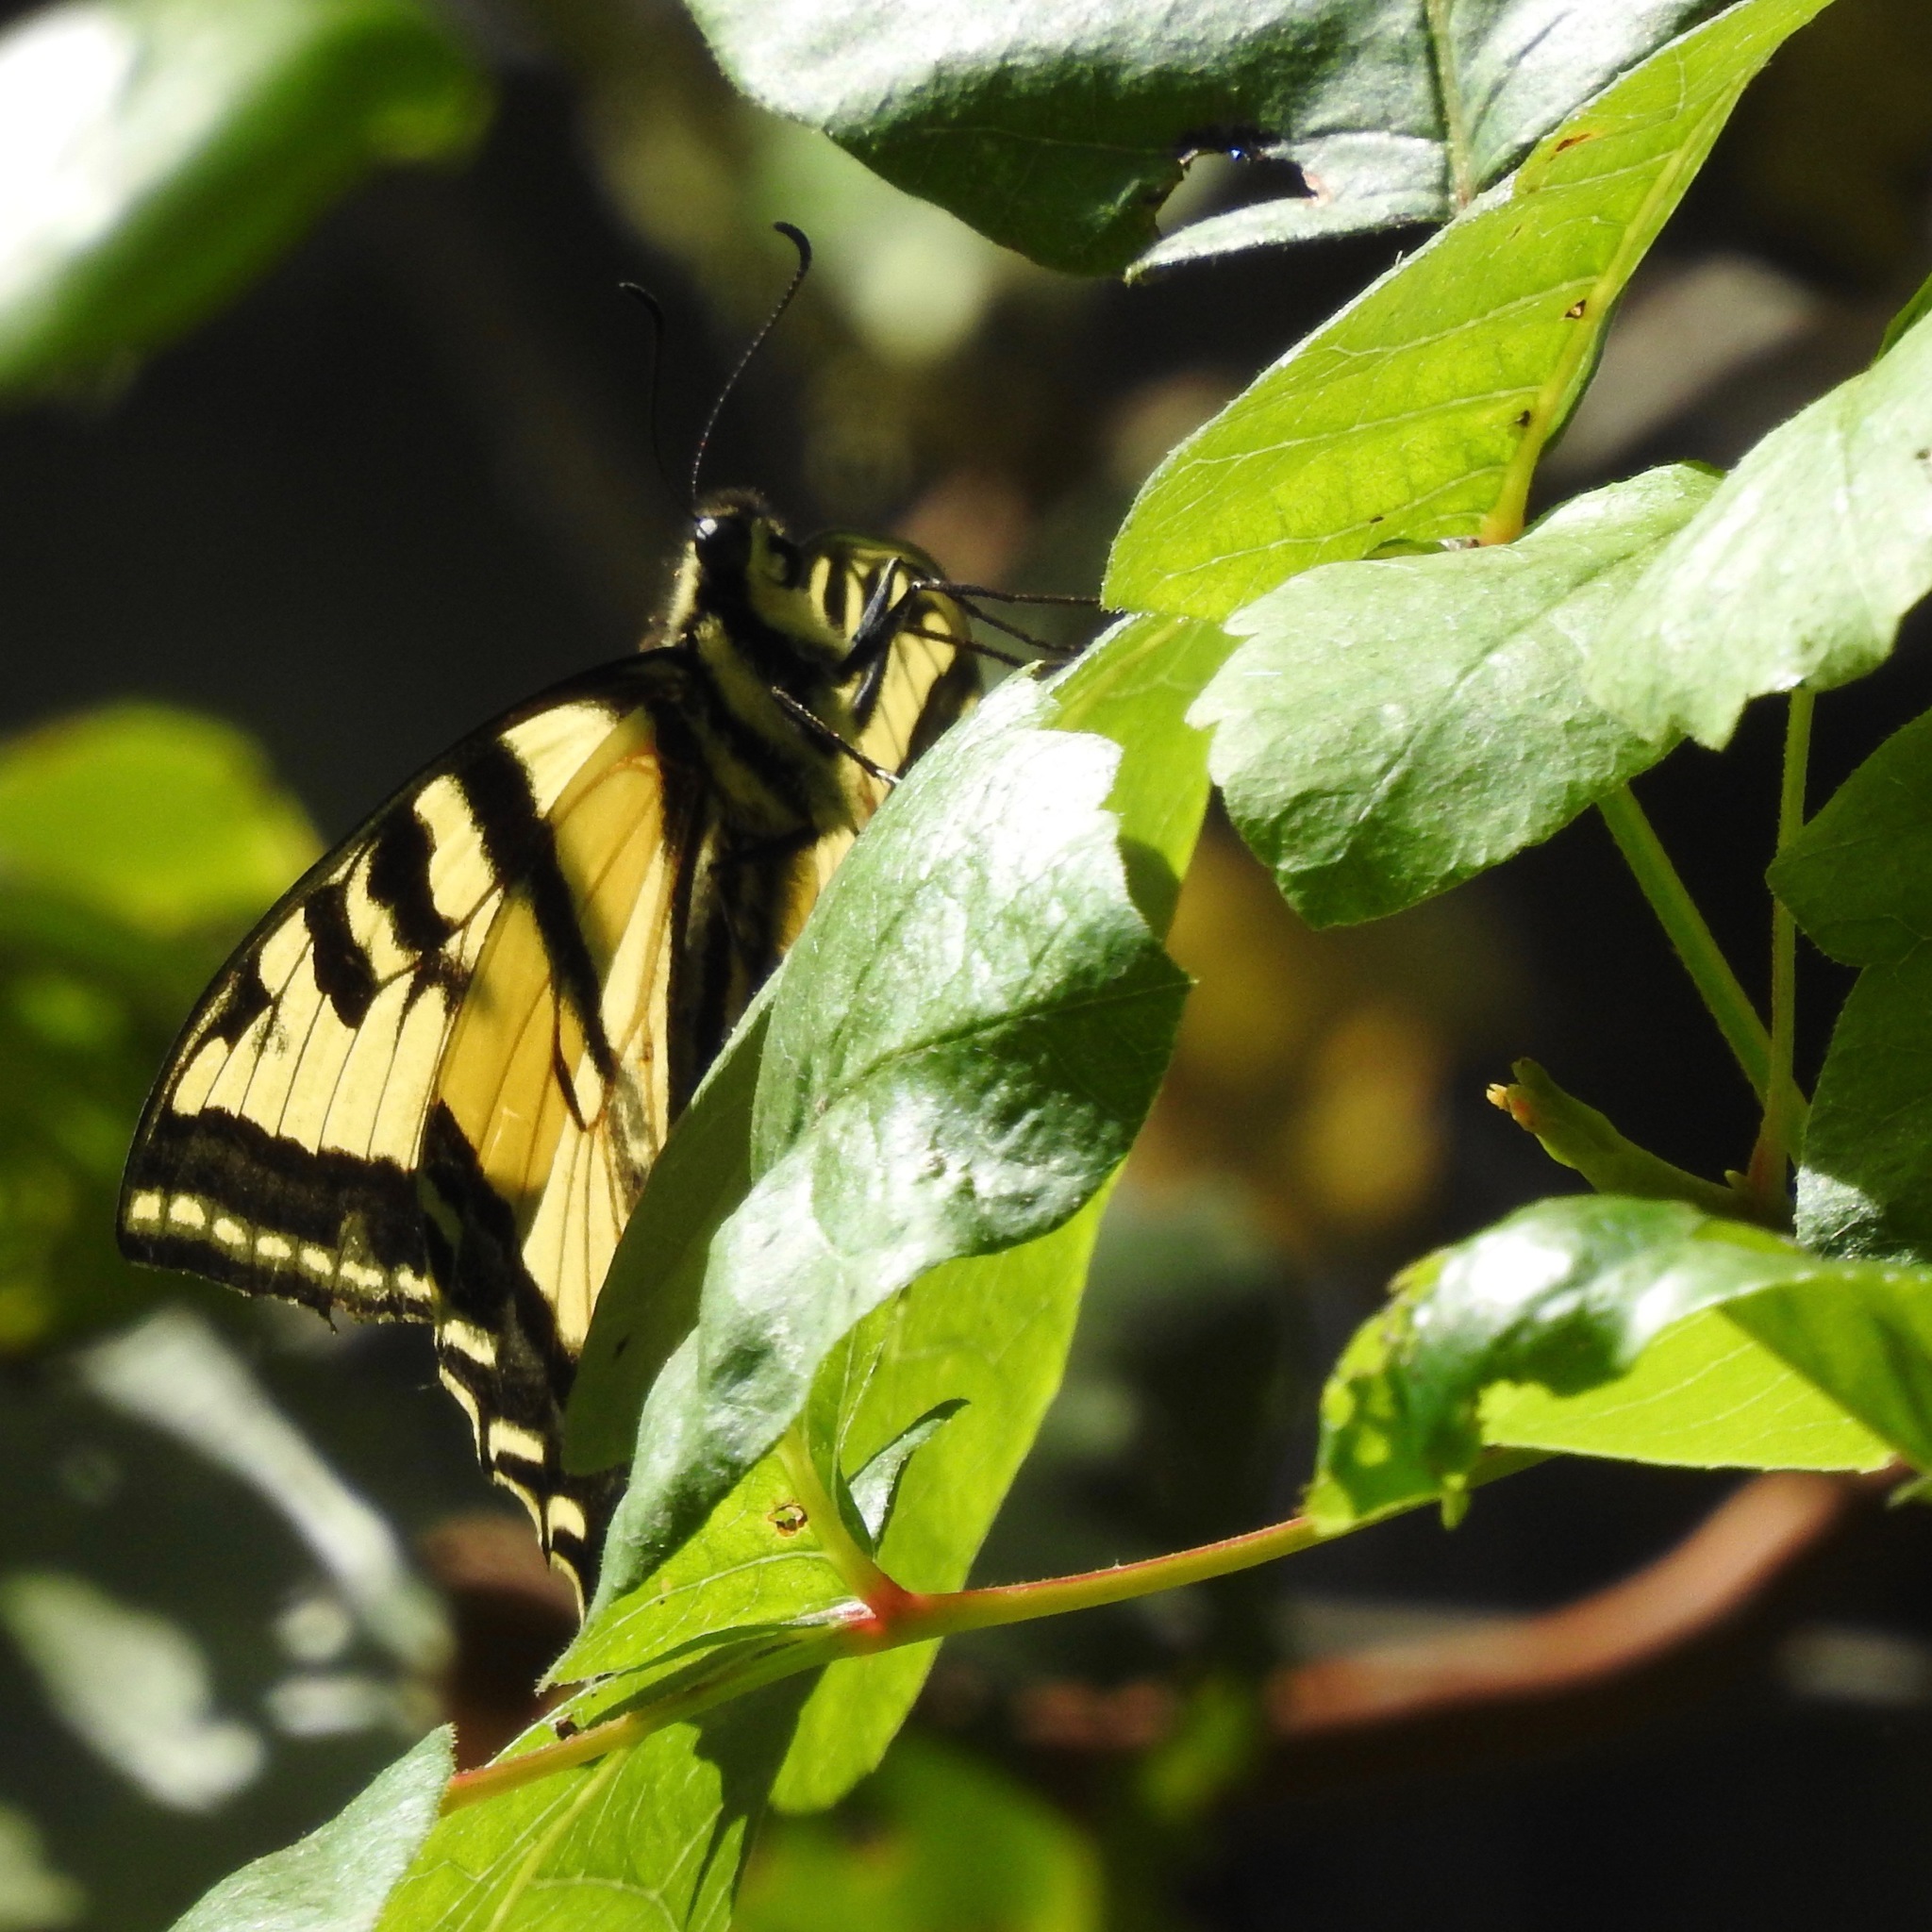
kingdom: Animalia
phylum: Arthropoda
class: Insecta
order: Lepidoptera
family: Papilionidae
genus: Papilio
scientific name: Papilio rutulus
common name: Western tiger swallowtail
